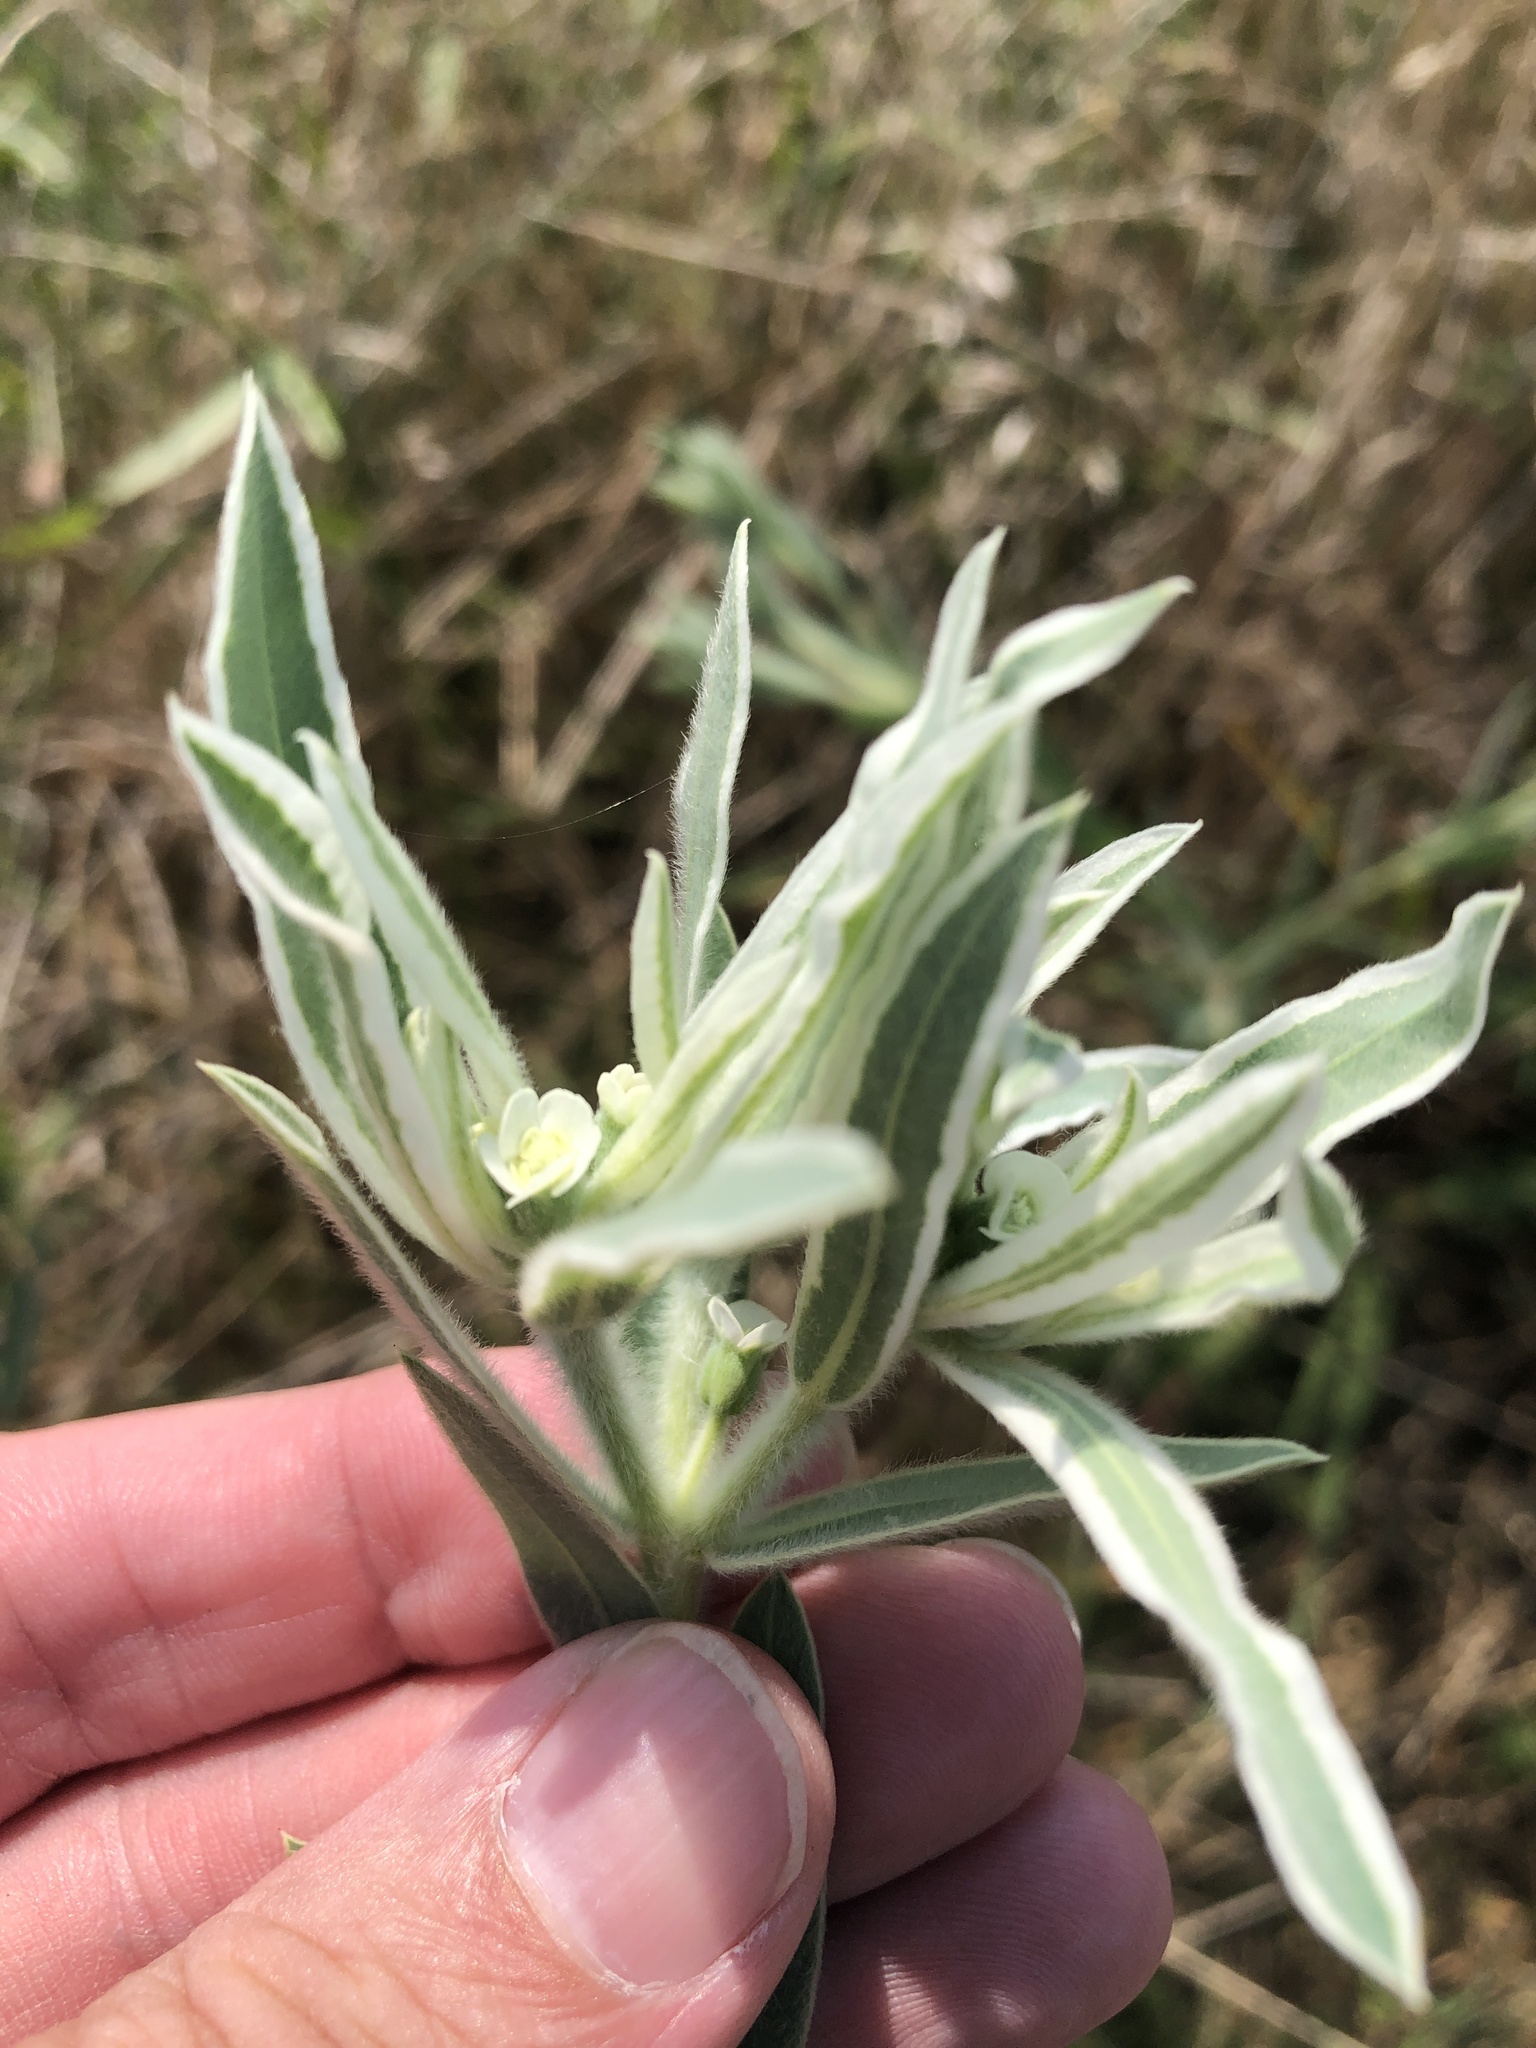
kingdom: Plantae
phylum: Tracheophyta
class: Magnoliopsida
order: Malpighiales
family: Euphorbiaceae
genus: Euphorbia
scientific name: Euphorbia bicolor
